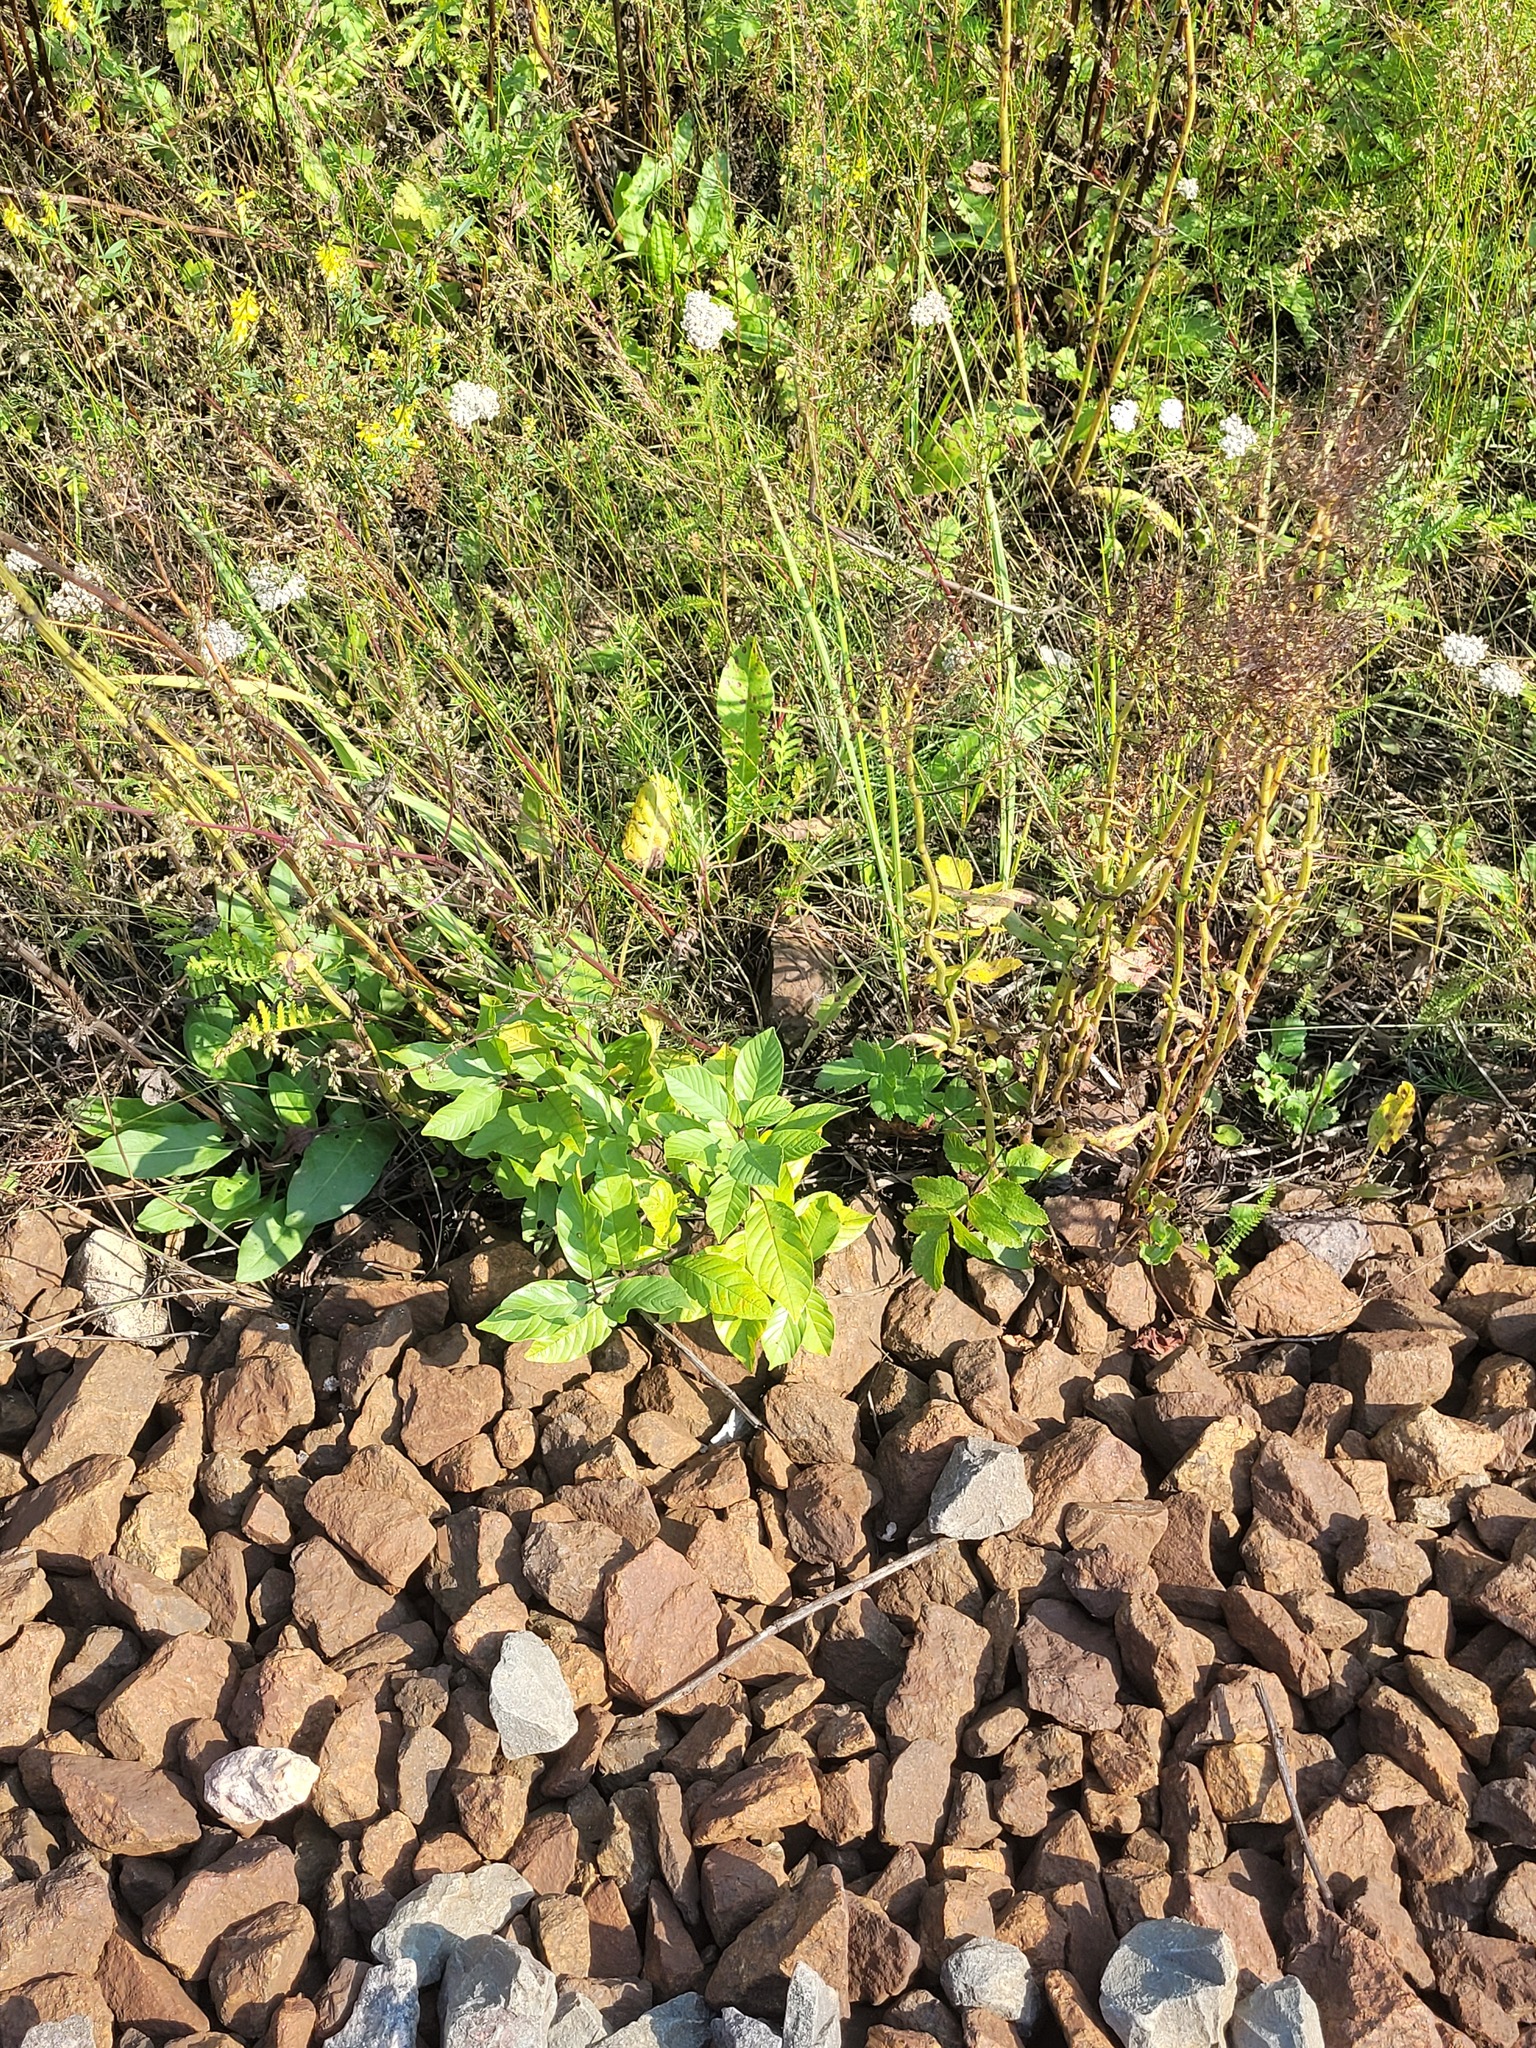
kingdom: Plantae
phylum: Tracheophyta
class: Magnoliopsida
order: Rosales
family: Rhamnaceae
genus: Frangula
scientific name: Frangula alnus
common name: Alder buckthorn
